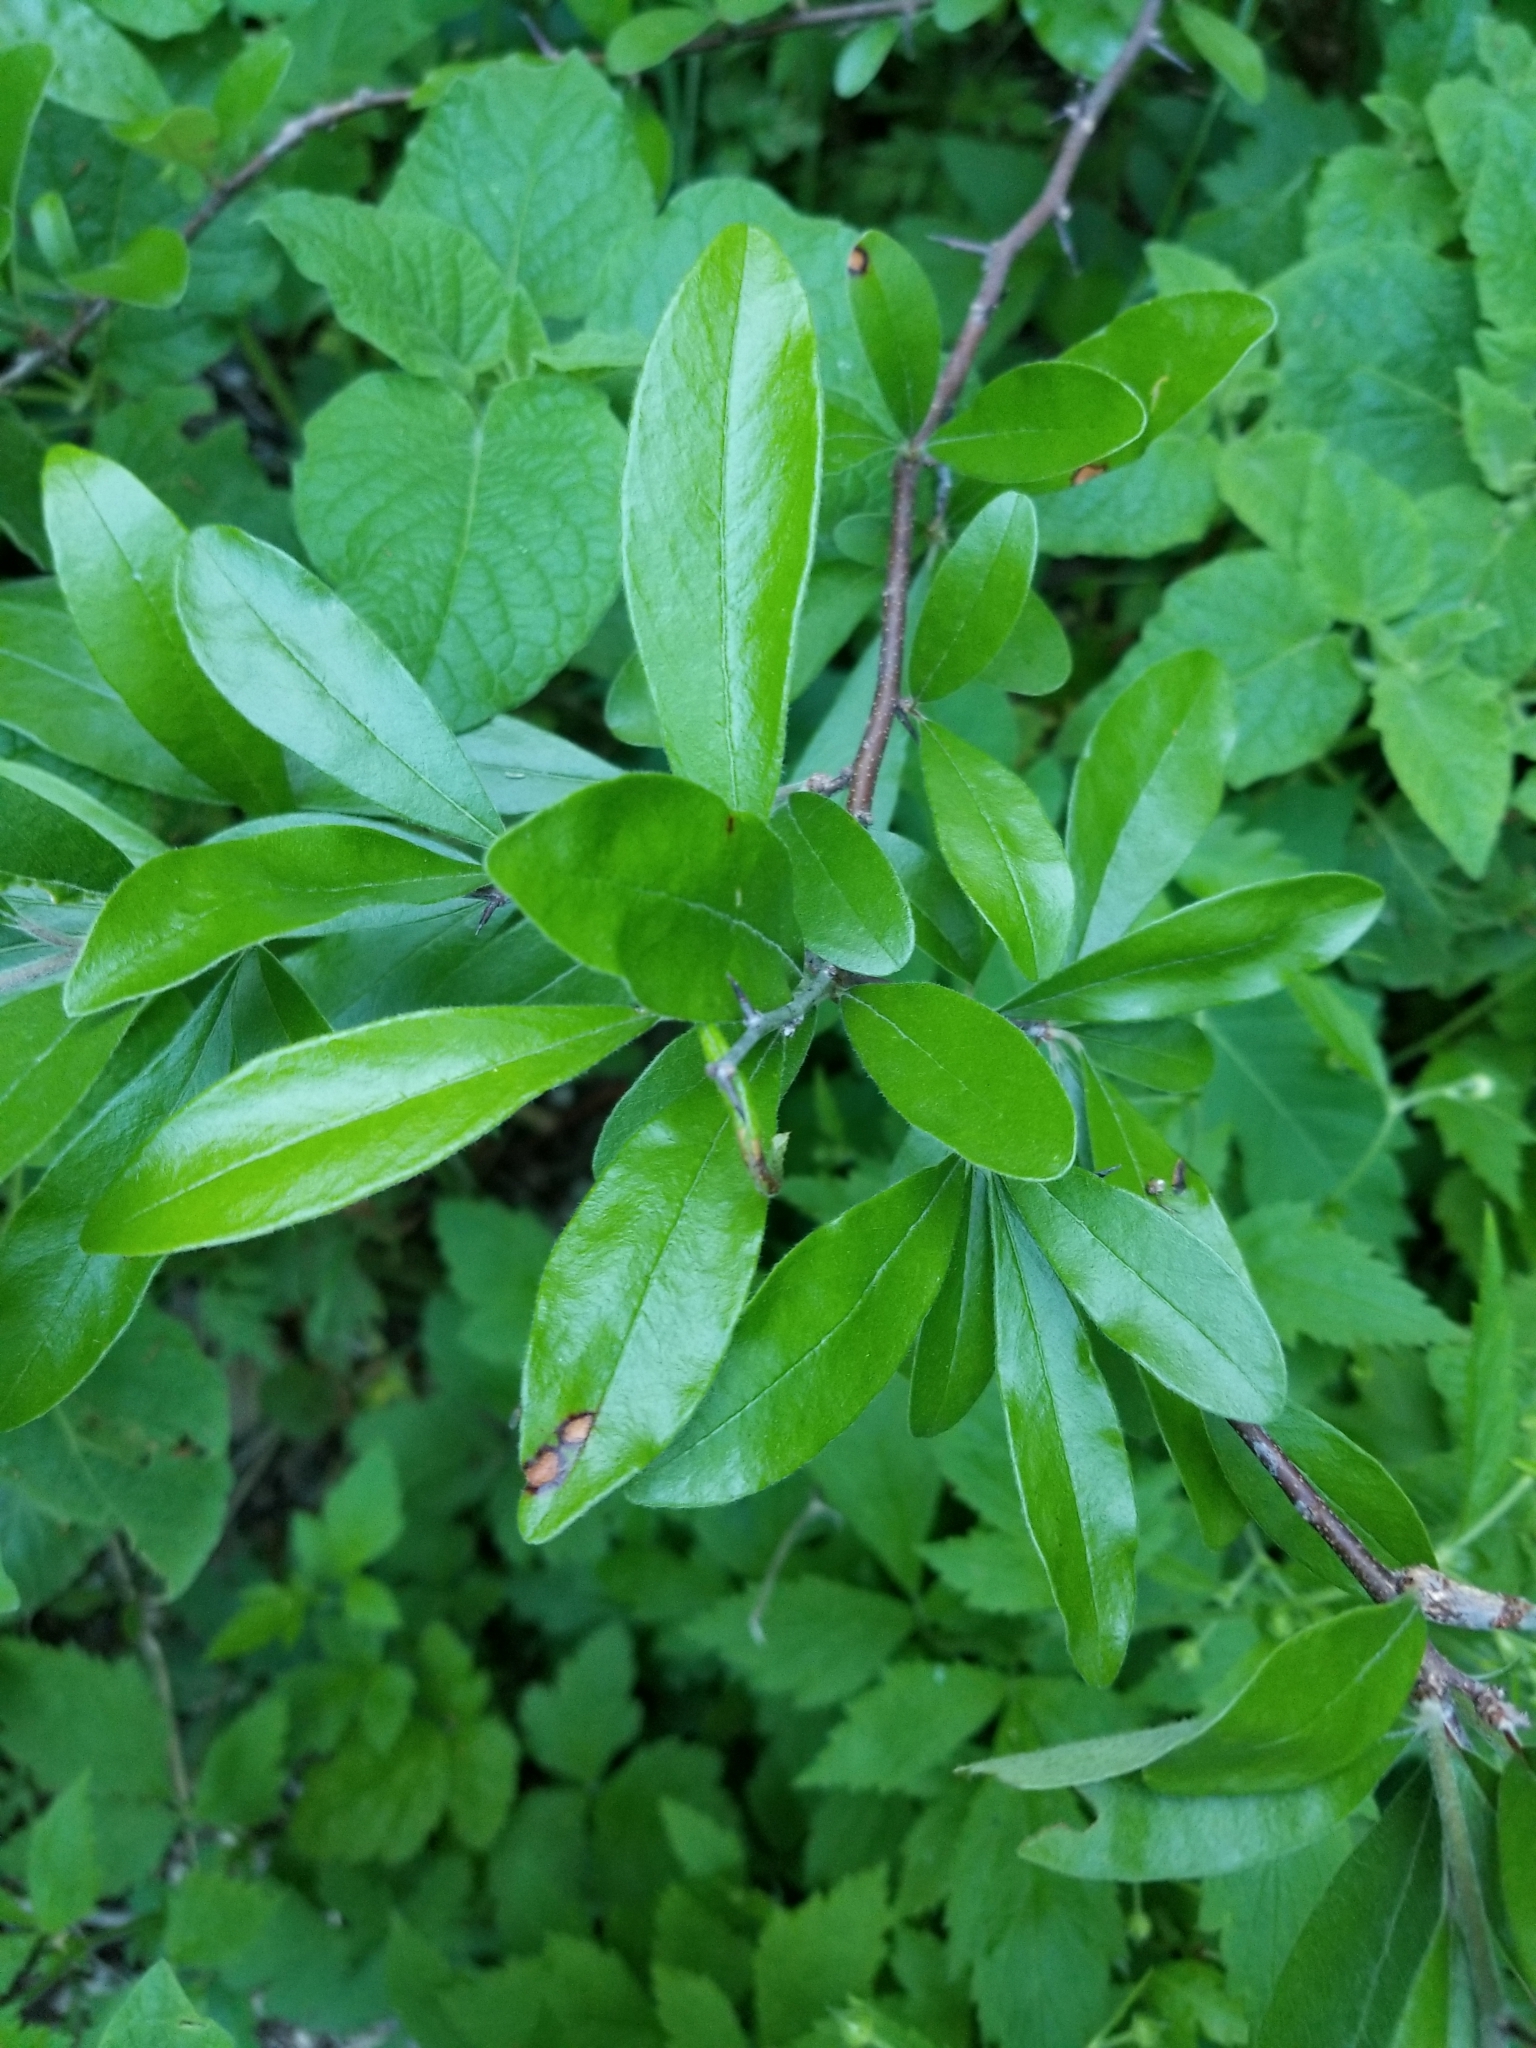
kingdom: Plantae
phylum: Tracheophyta
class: Magnoliopsida
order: Ericales
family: Sapotaceae
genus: Sideroxylon
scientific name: Sideroxylon lanuginosum
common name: Chittamwood
